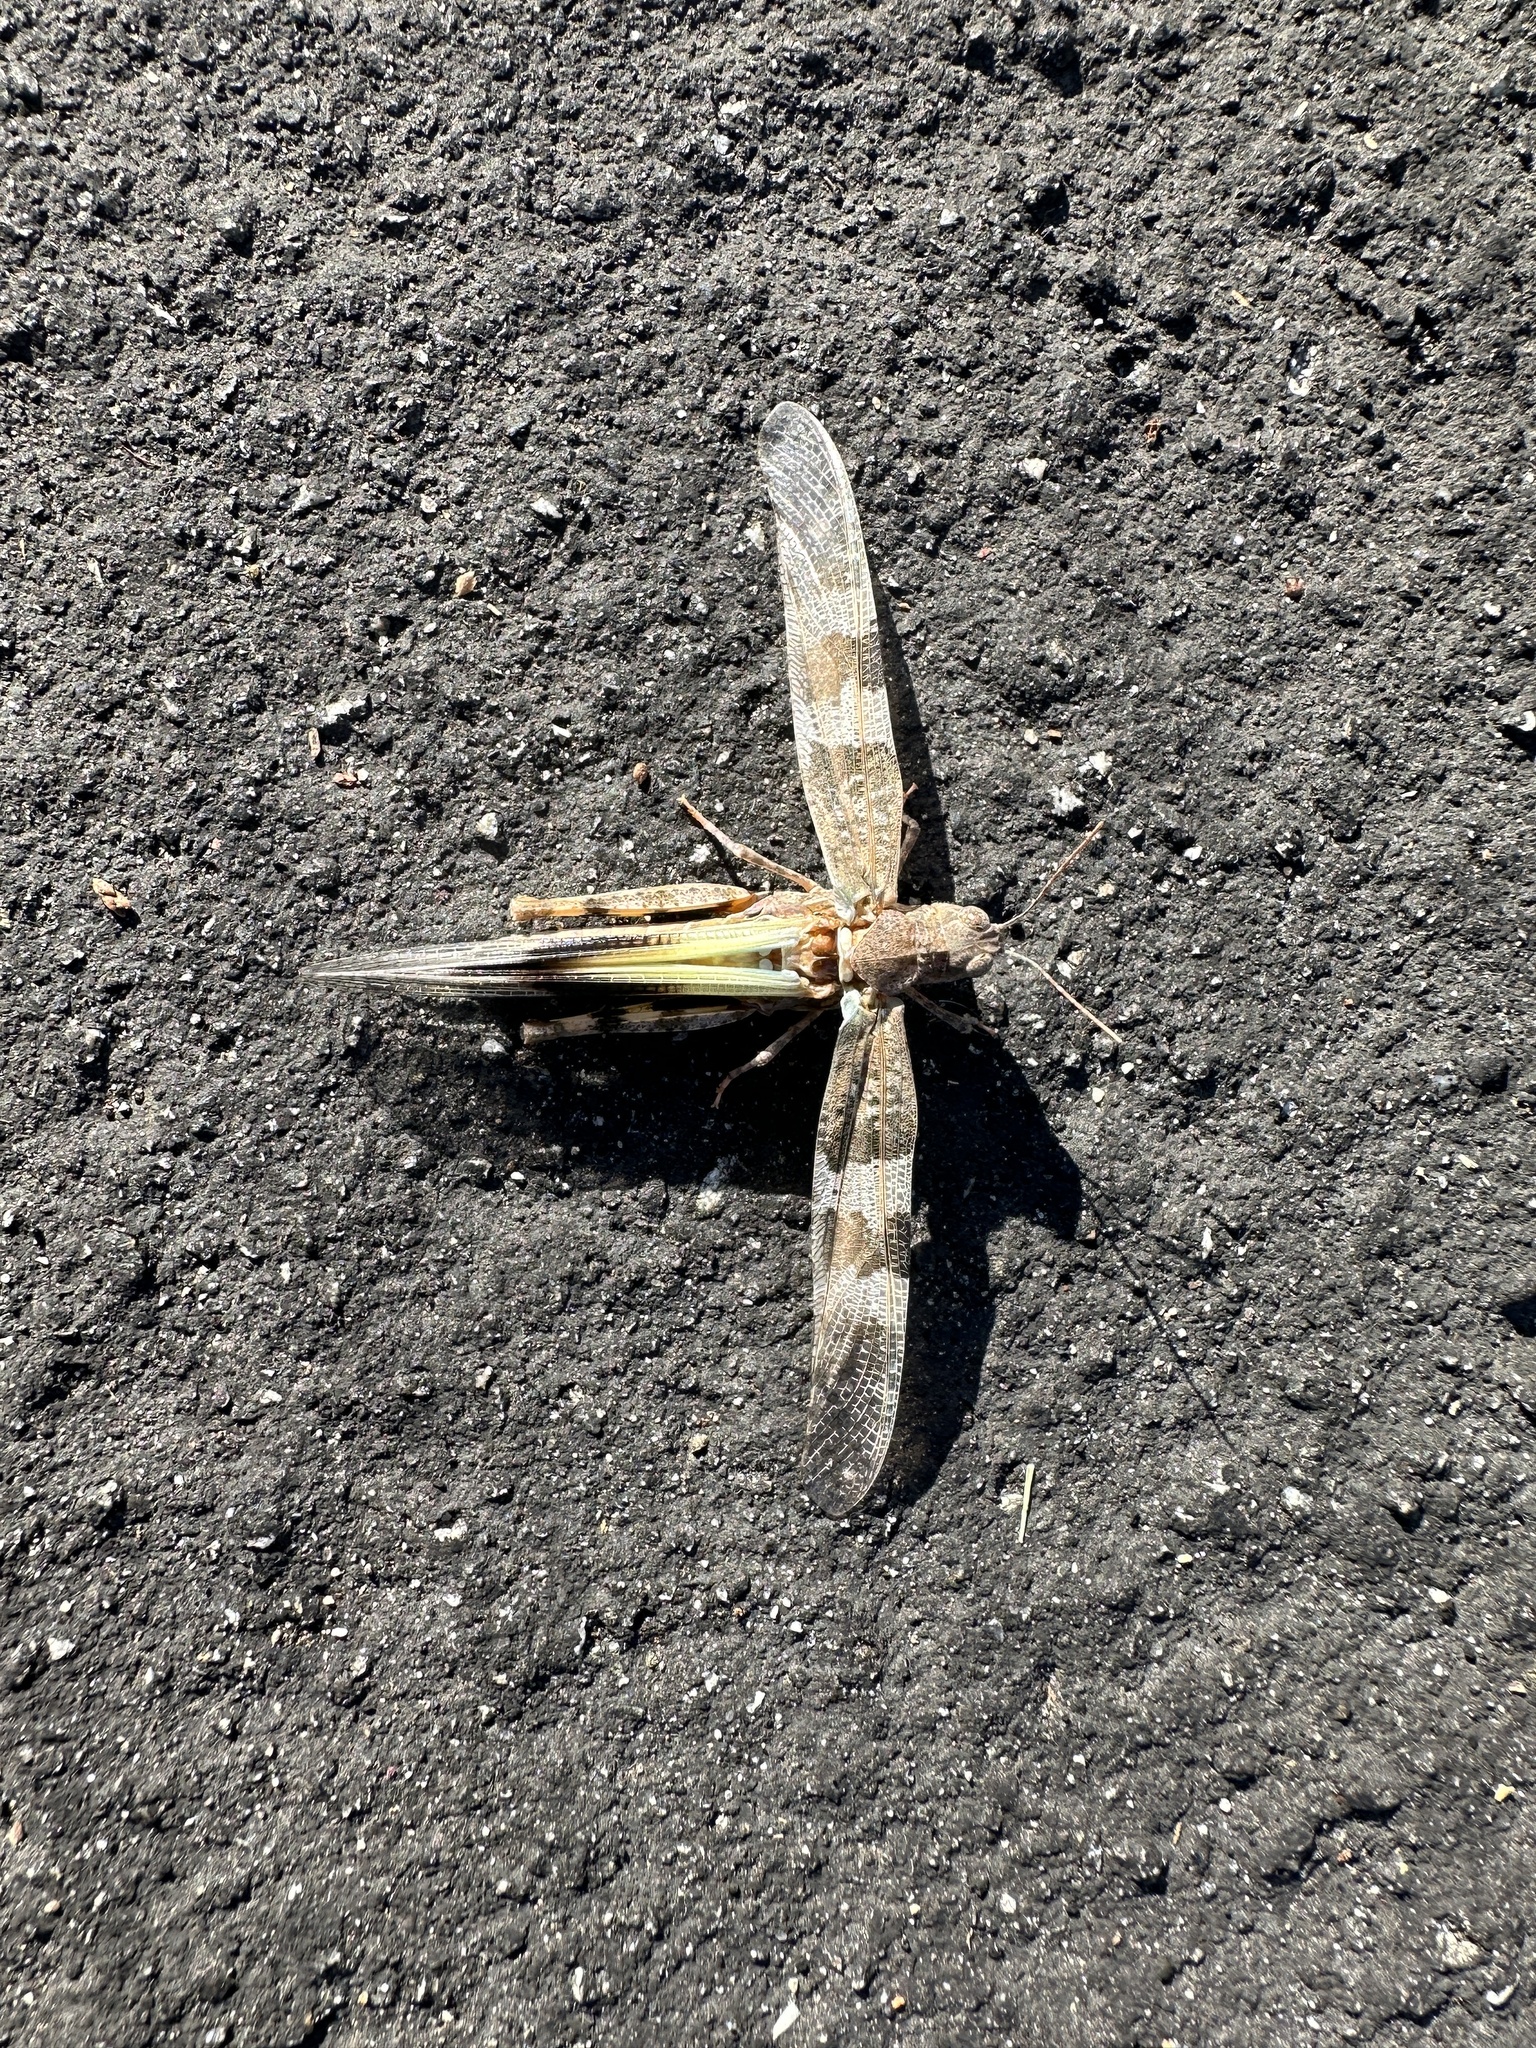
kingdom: Animalia
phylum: Arthropoda
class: Insecta
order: Orthoptera
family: Acrididae
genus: Trimerotropis
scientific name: Trimerotropis pallidipennis
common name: Pallid-winged grasshopper
